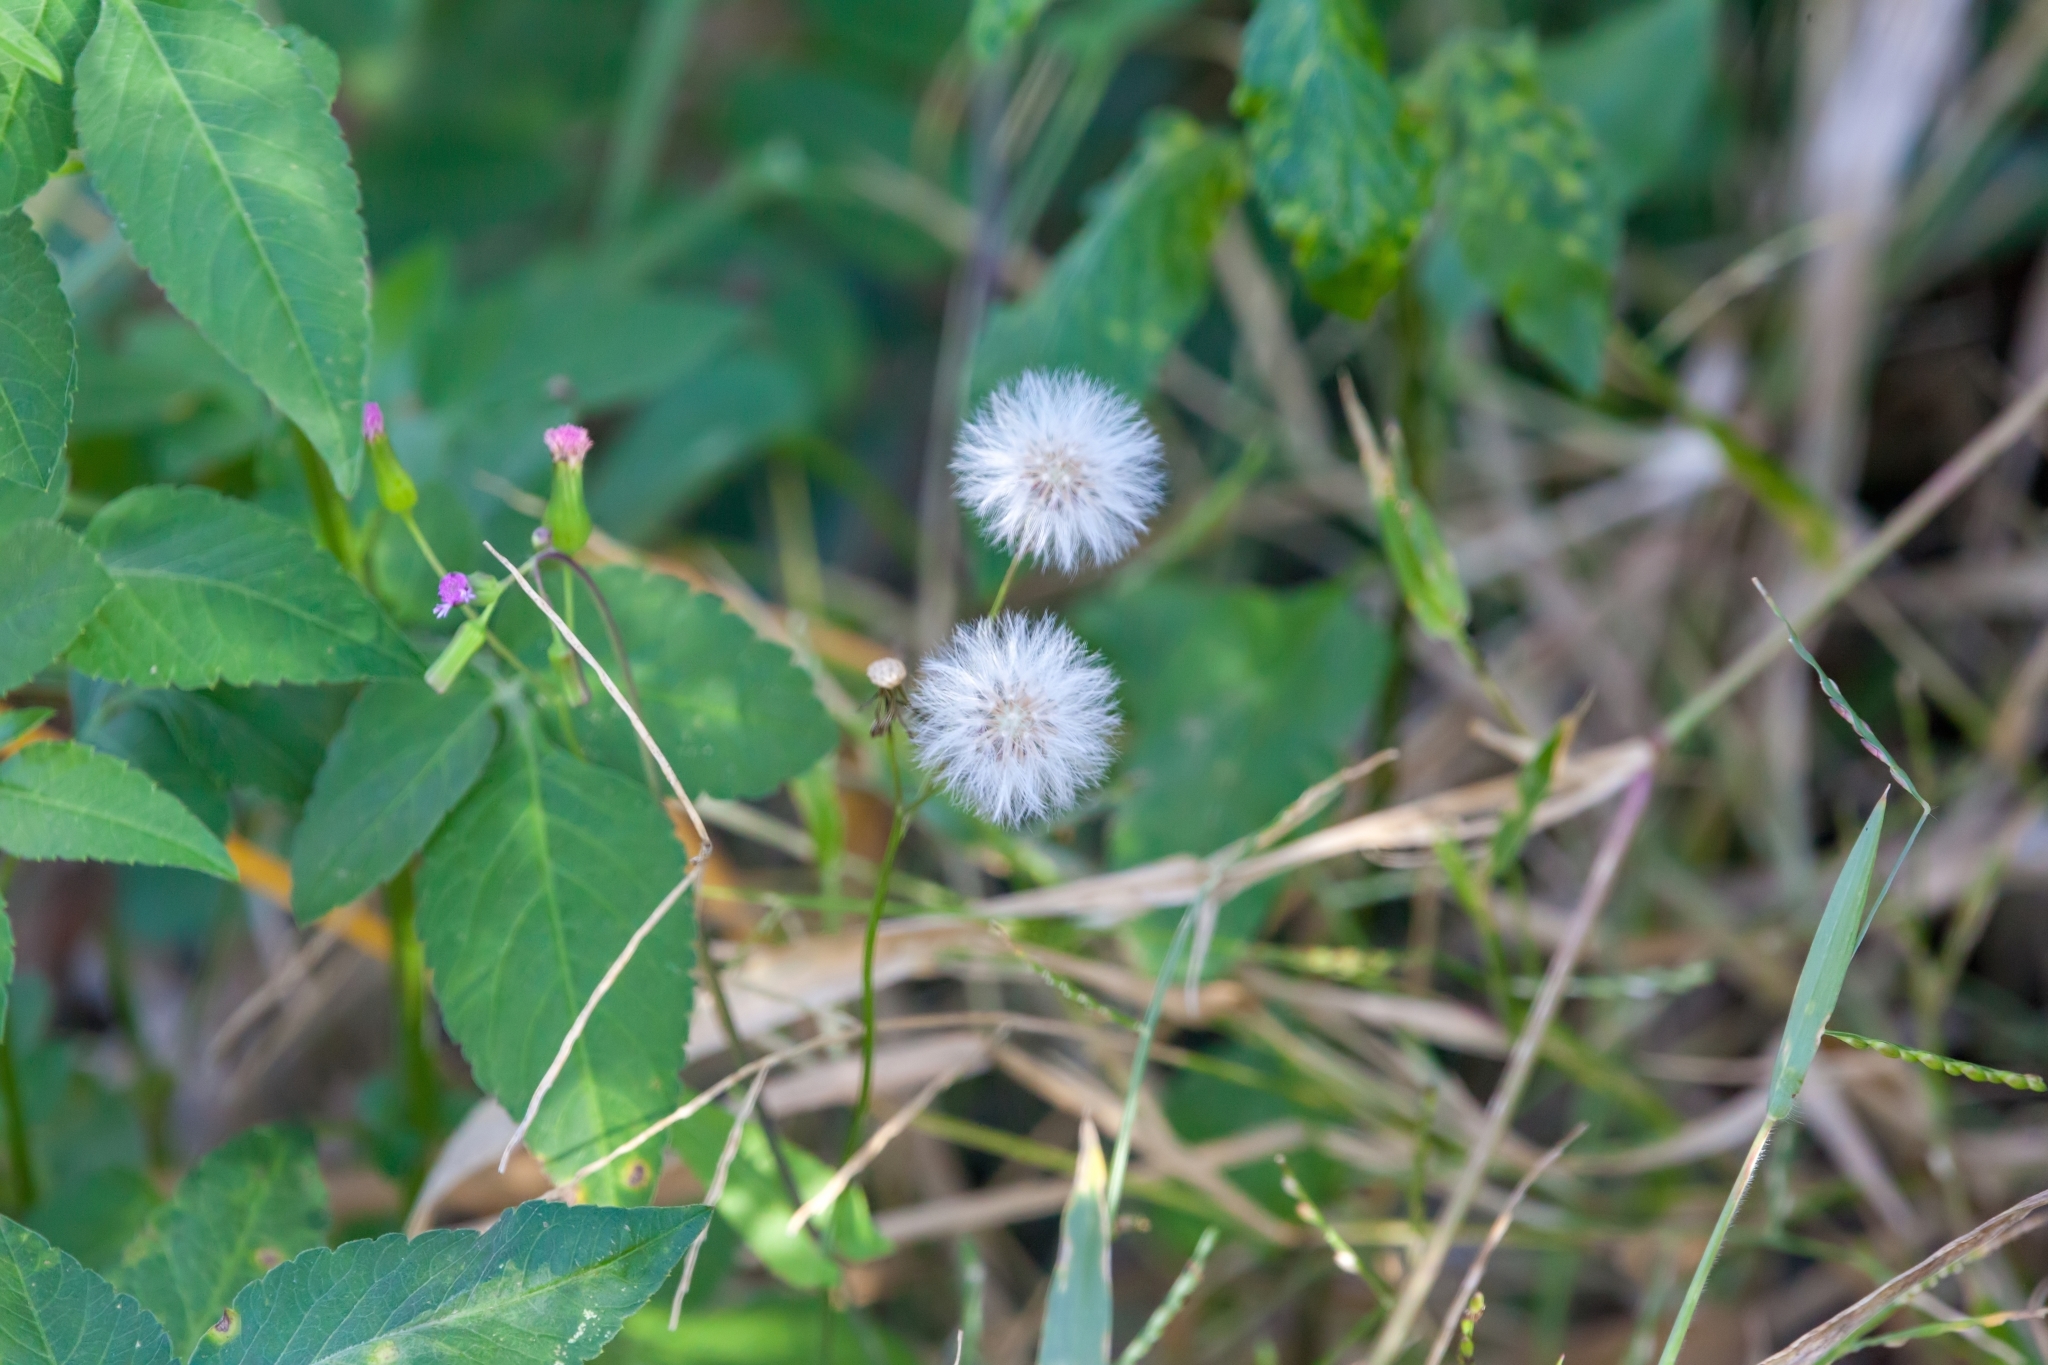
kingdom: Plantae
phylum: Tracheophyta
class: Magnoliopsida
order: Asterales
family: Asteraceae
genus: Emilia
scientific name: Emilia sonchifolia
